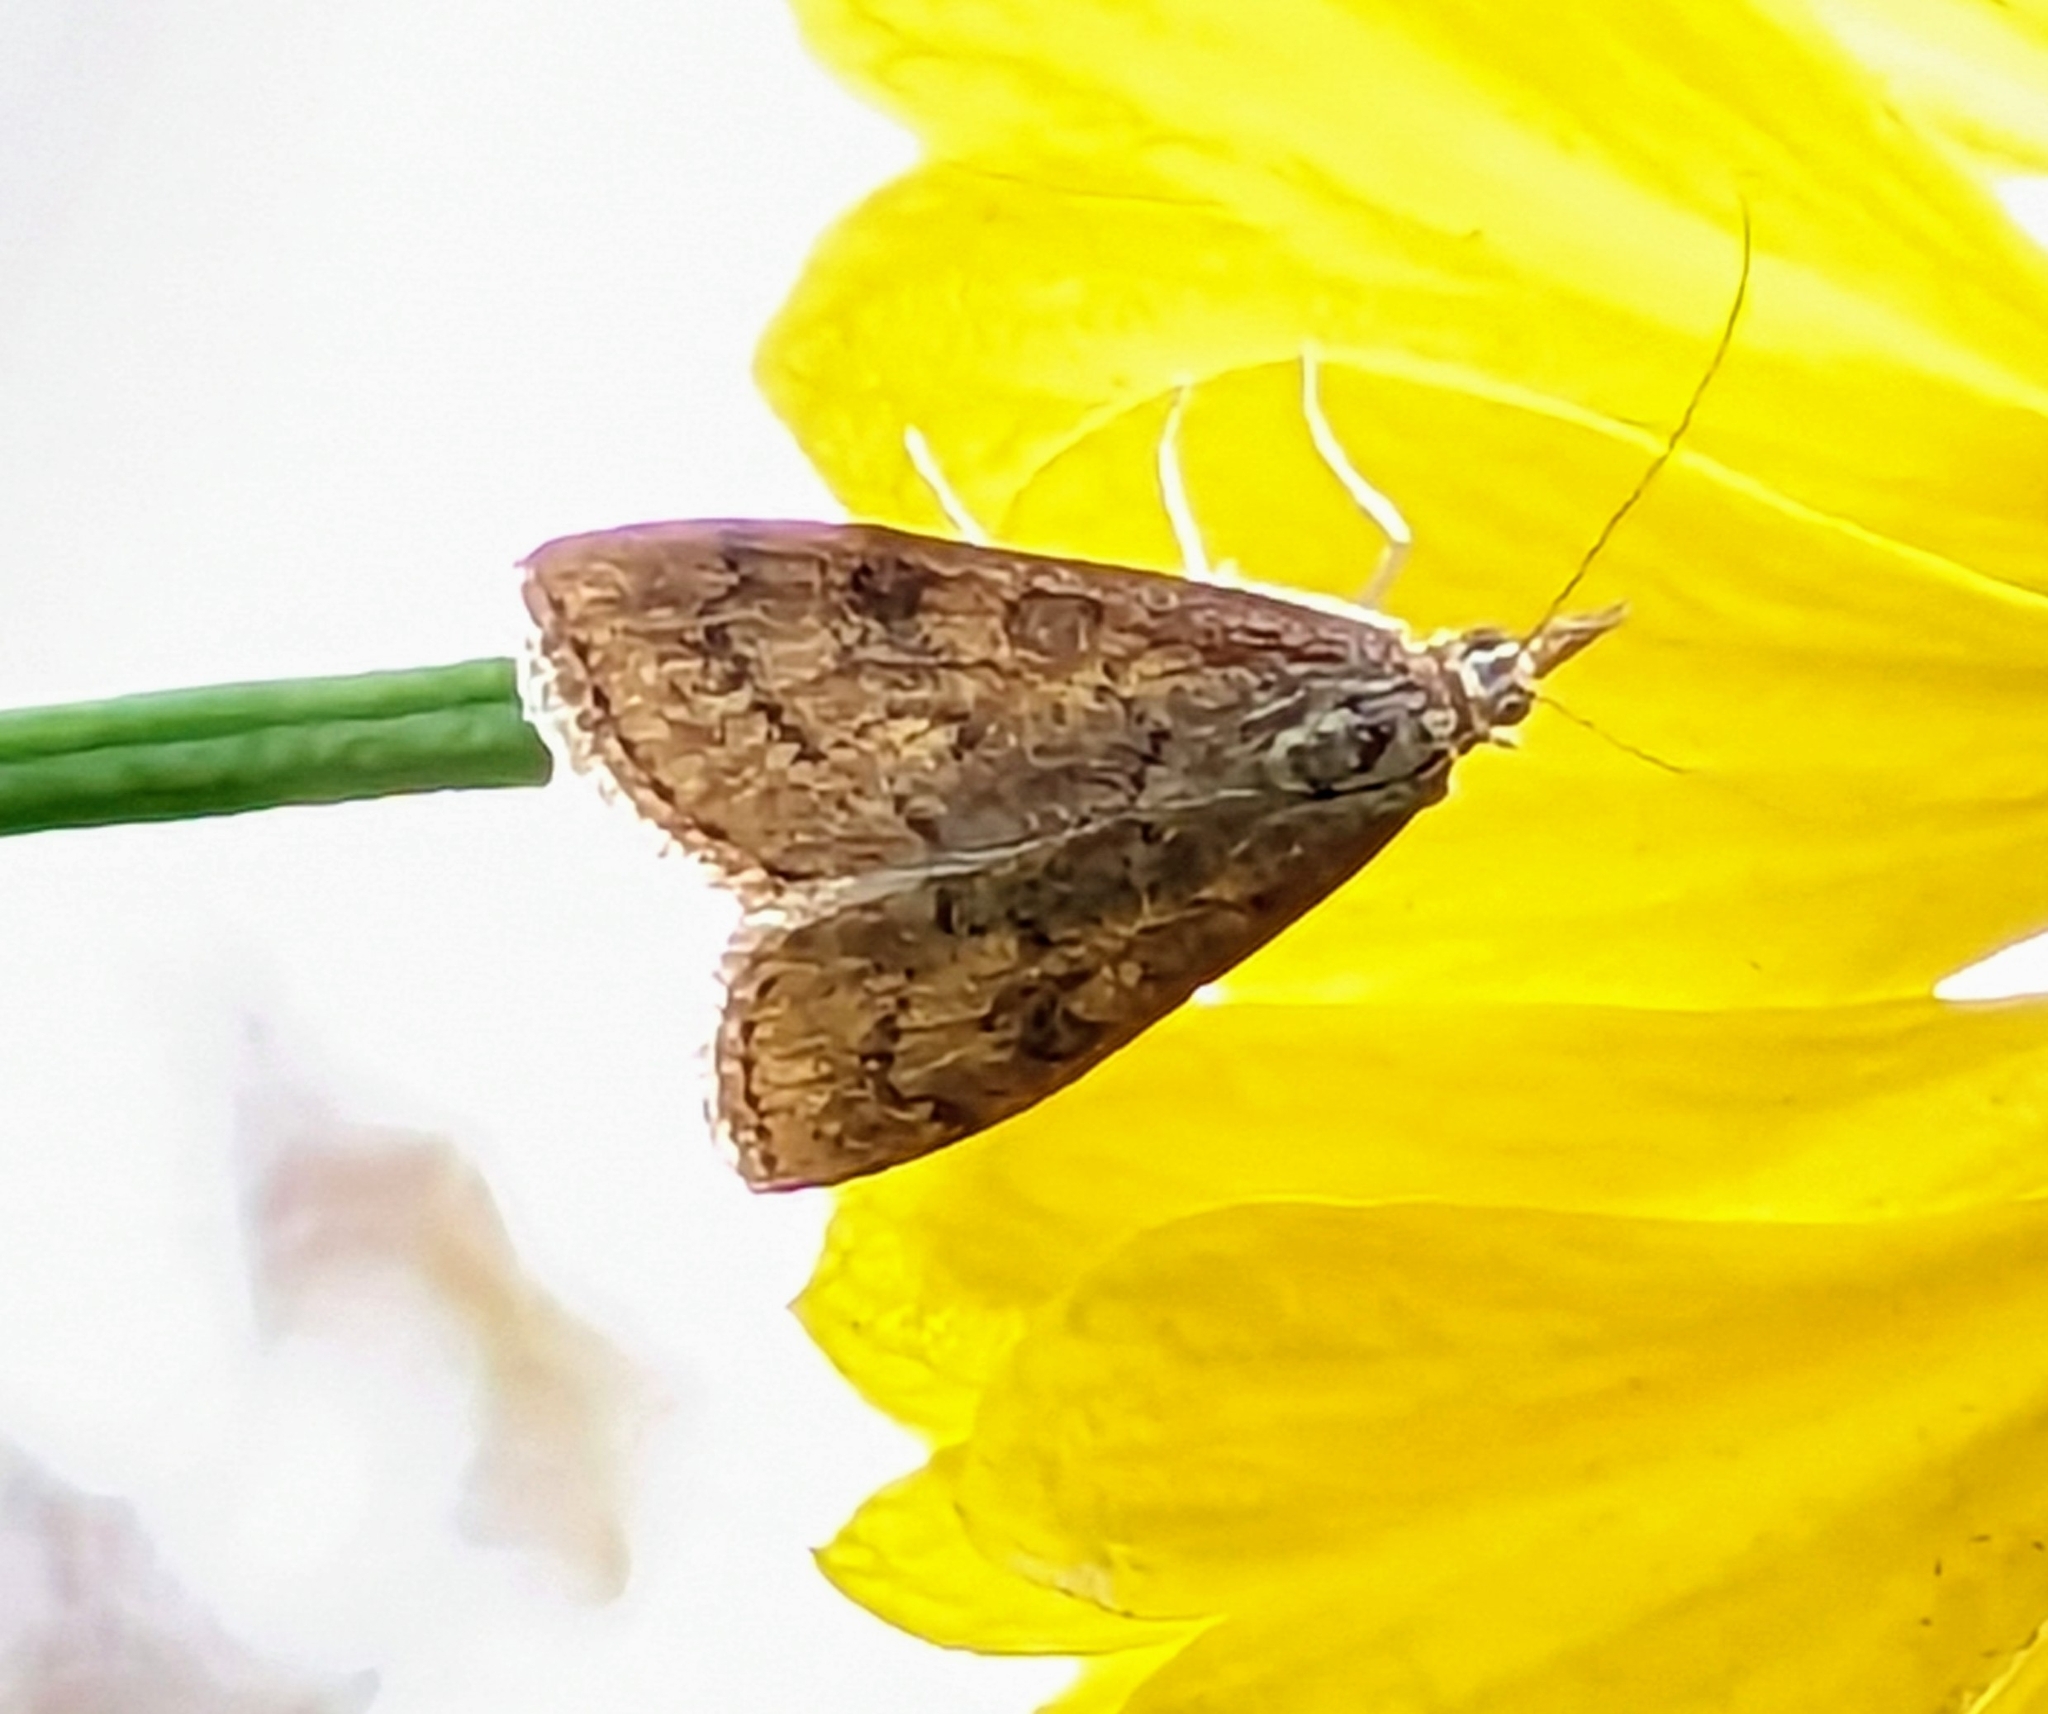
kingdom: Animalia
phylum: Arthropoda
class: Insecta
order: Lepidoptera
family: Crambidae
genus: Udea
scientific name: Udea rubigalis
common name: Celery leaftier moth
